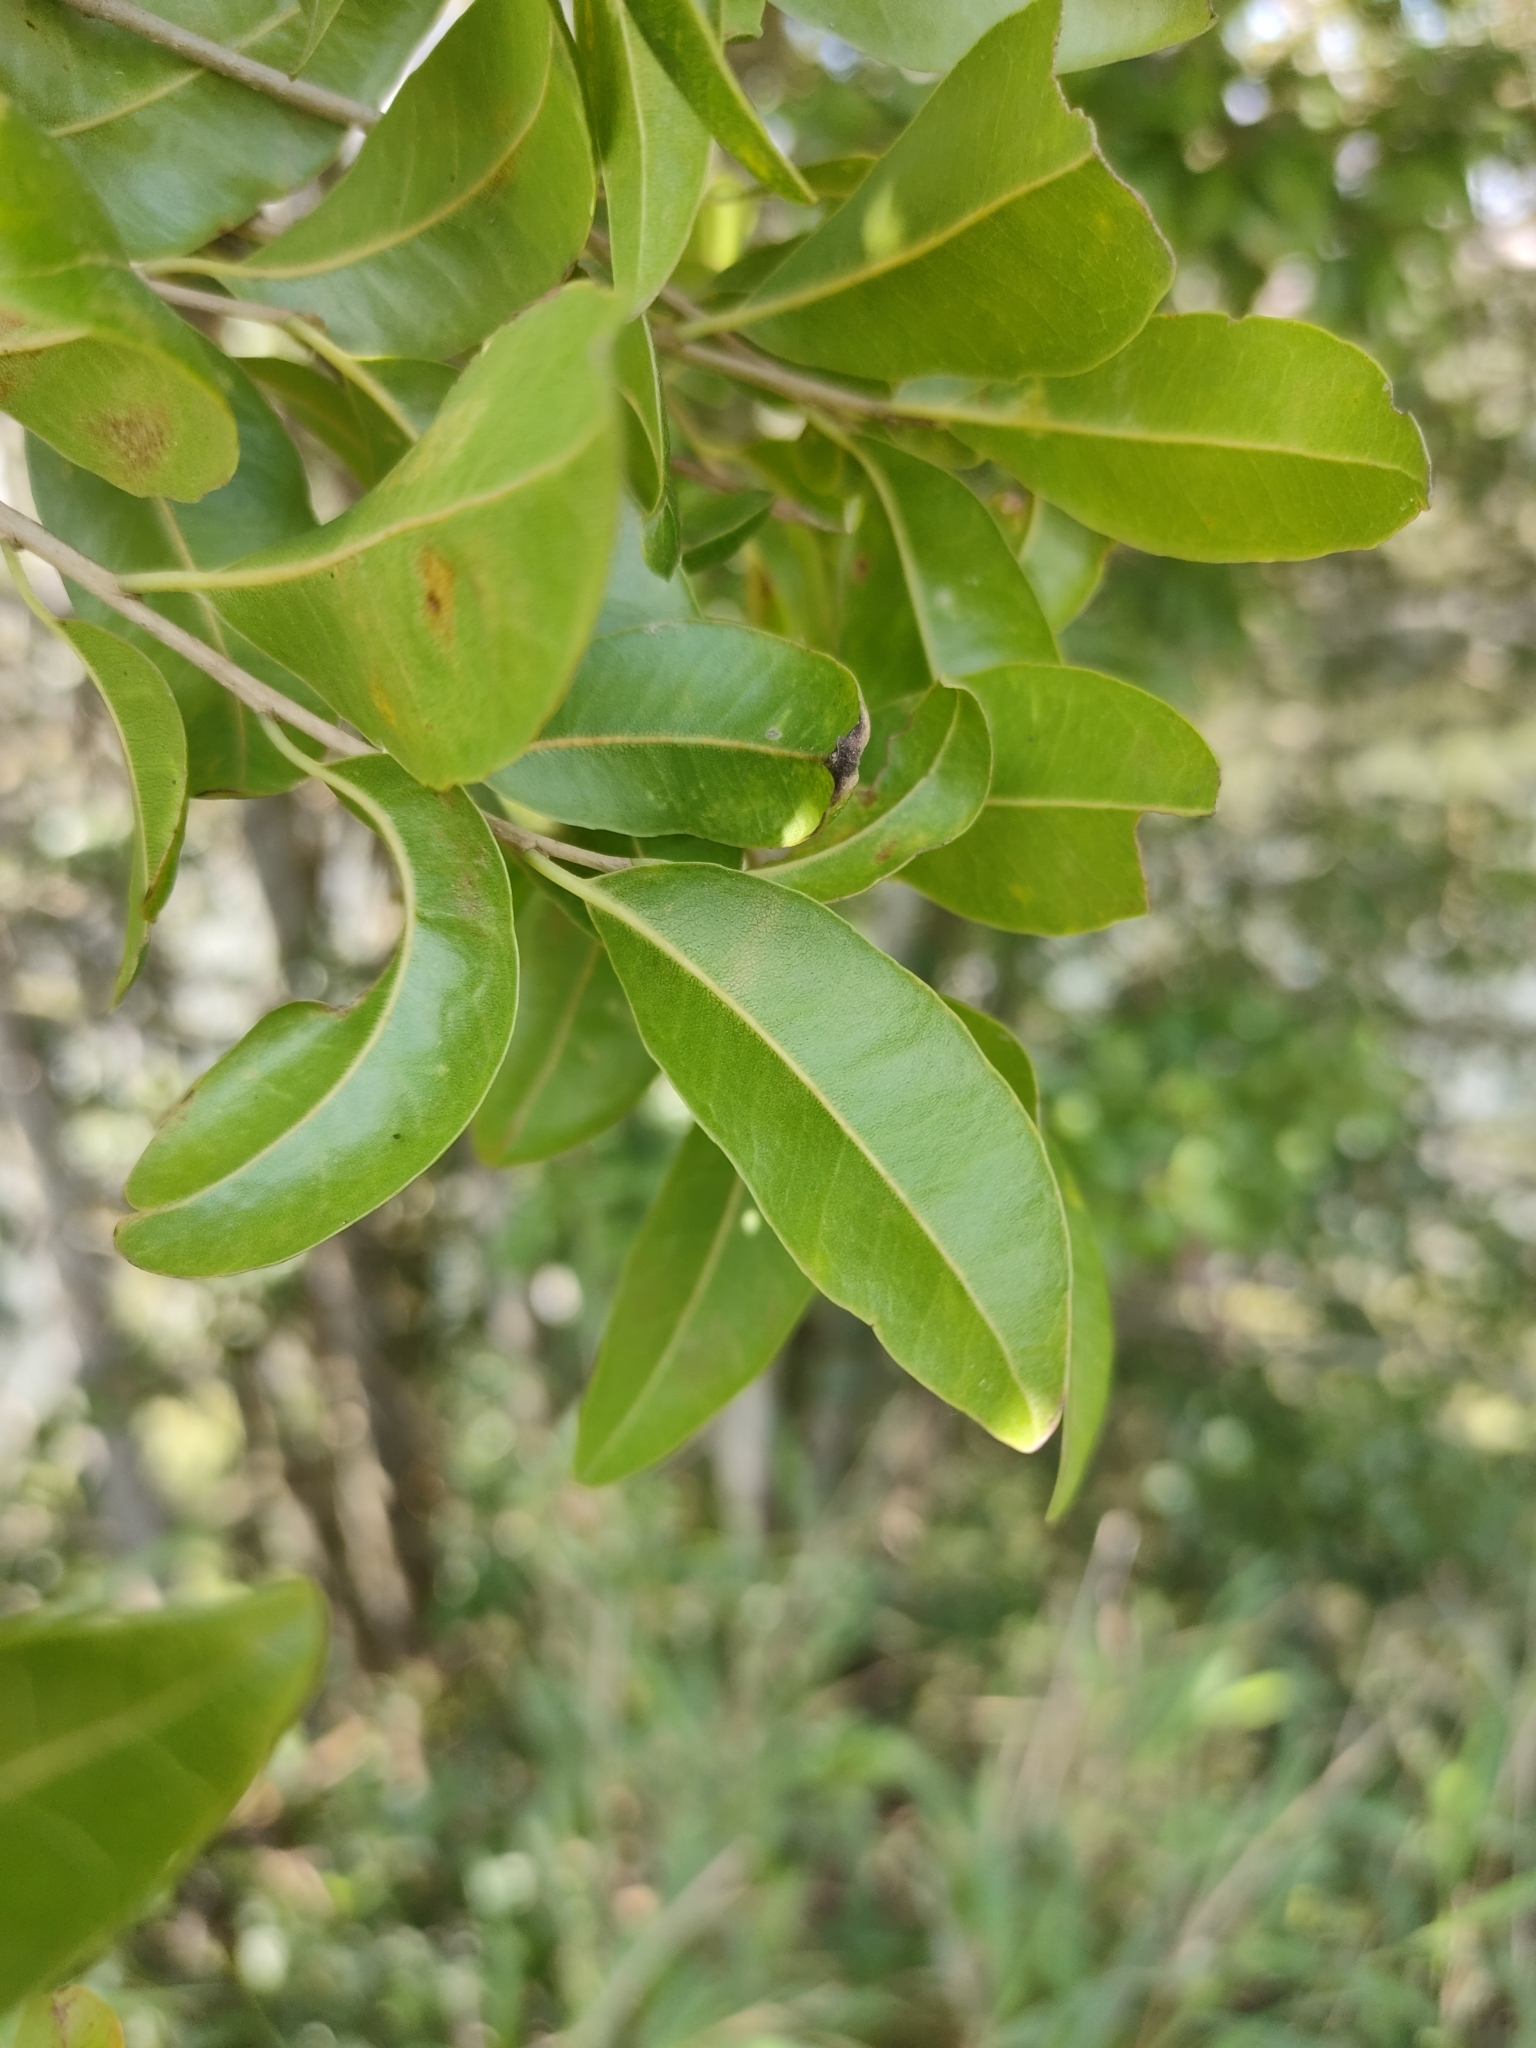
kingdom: Plantae
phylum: Tracheophyta
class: Magnoliopsida
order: Malpighiales
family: Putranjivaceae
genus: Drypetes
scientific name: Drypetes deplanchei
